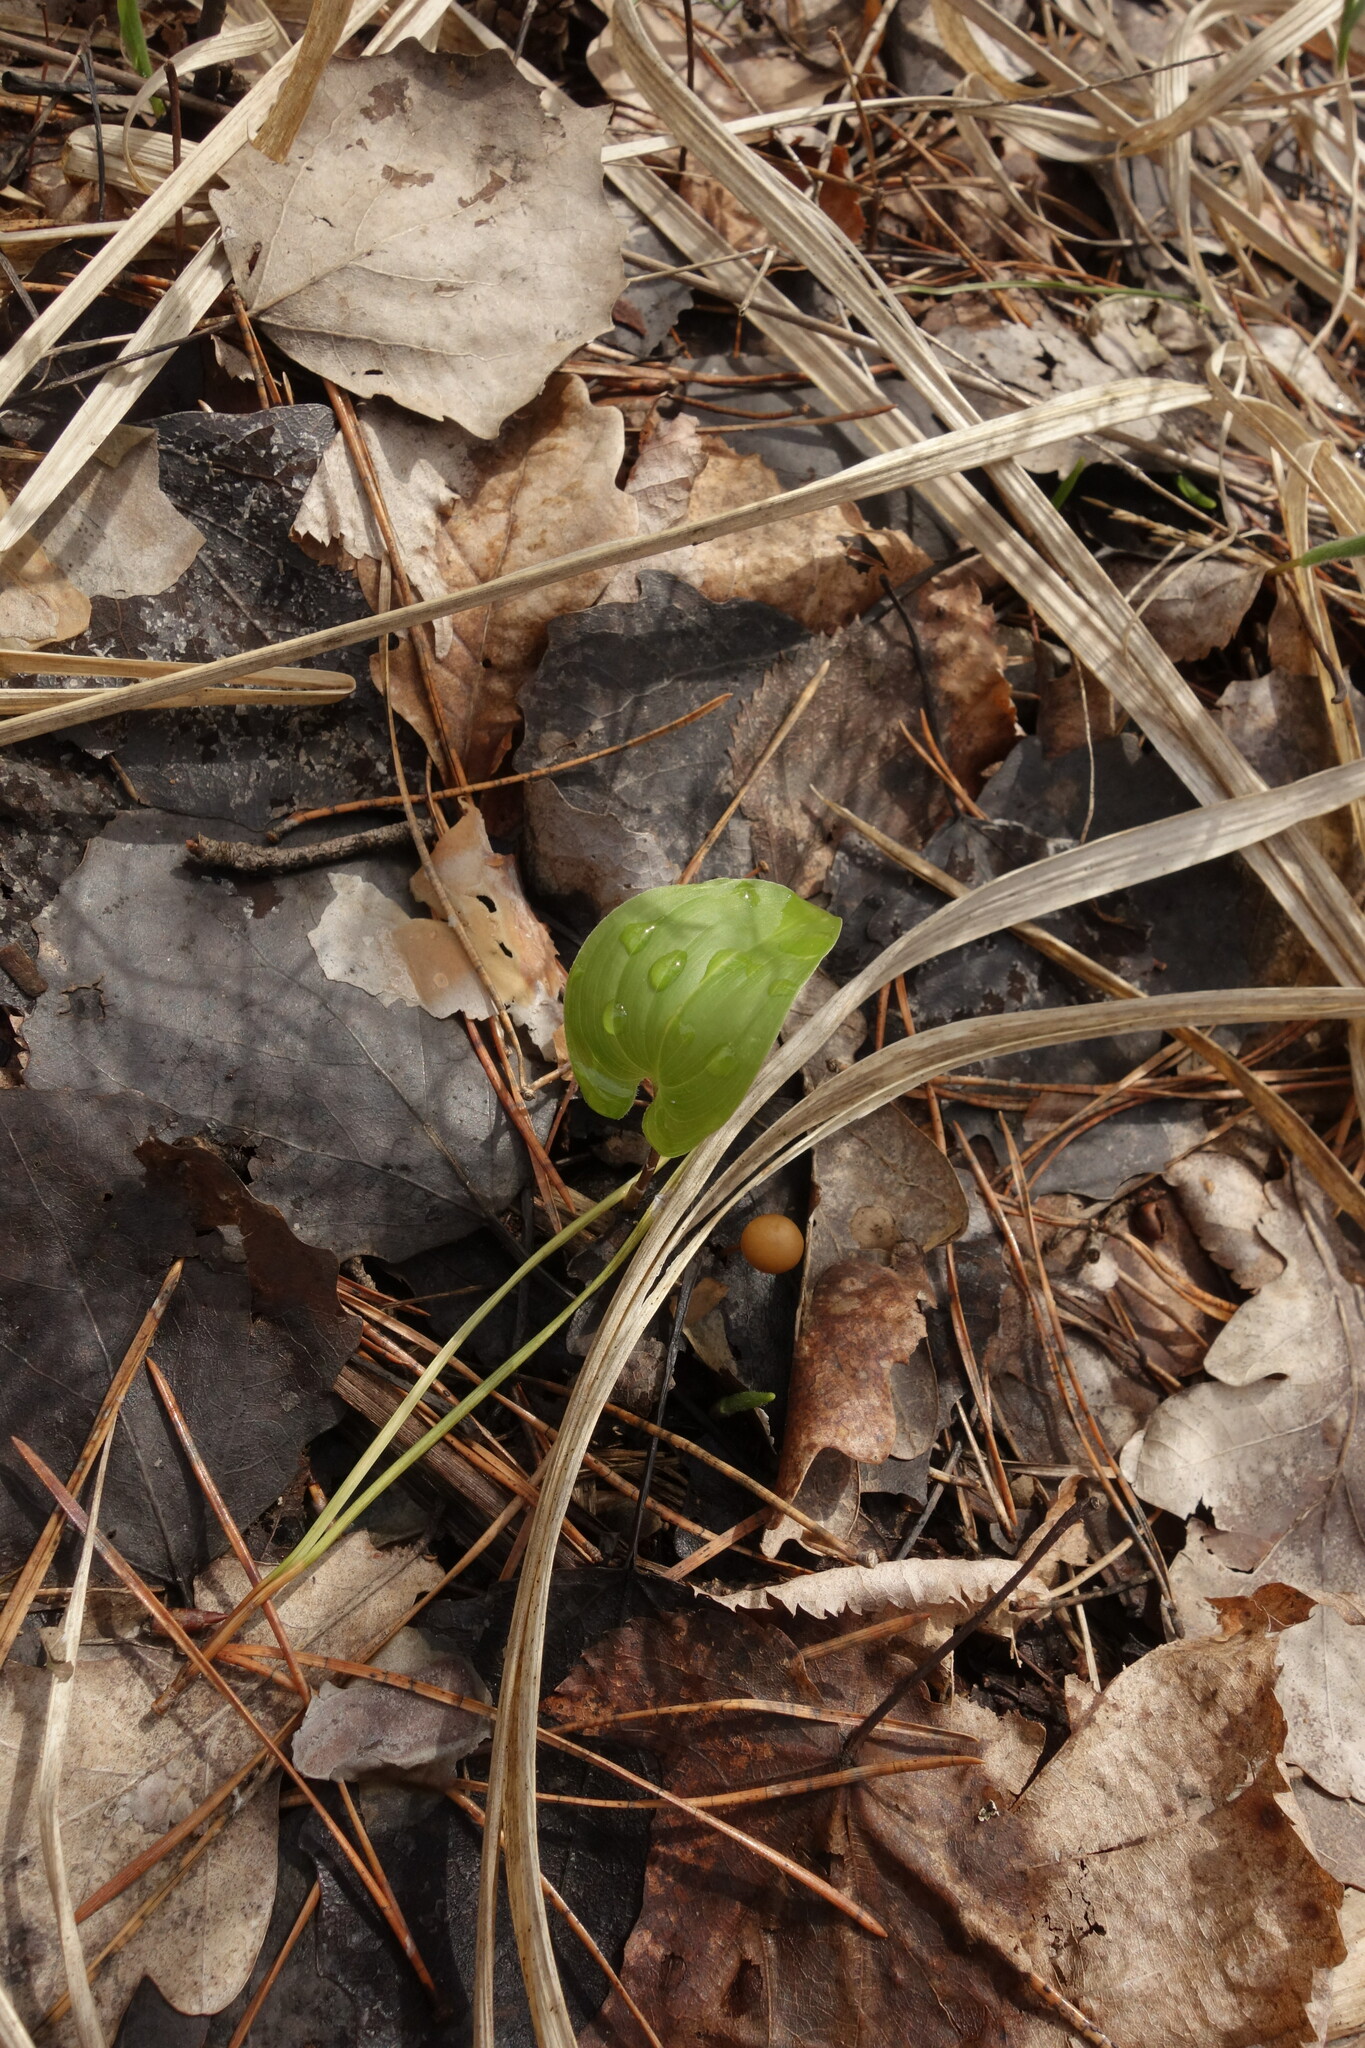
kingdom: Plantae
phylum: Tracheophyta
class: Liliopsida
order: Asparagales
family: Asparagaceae
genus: Maianthemum
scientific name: Maianthemum bifolium
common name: May lily
